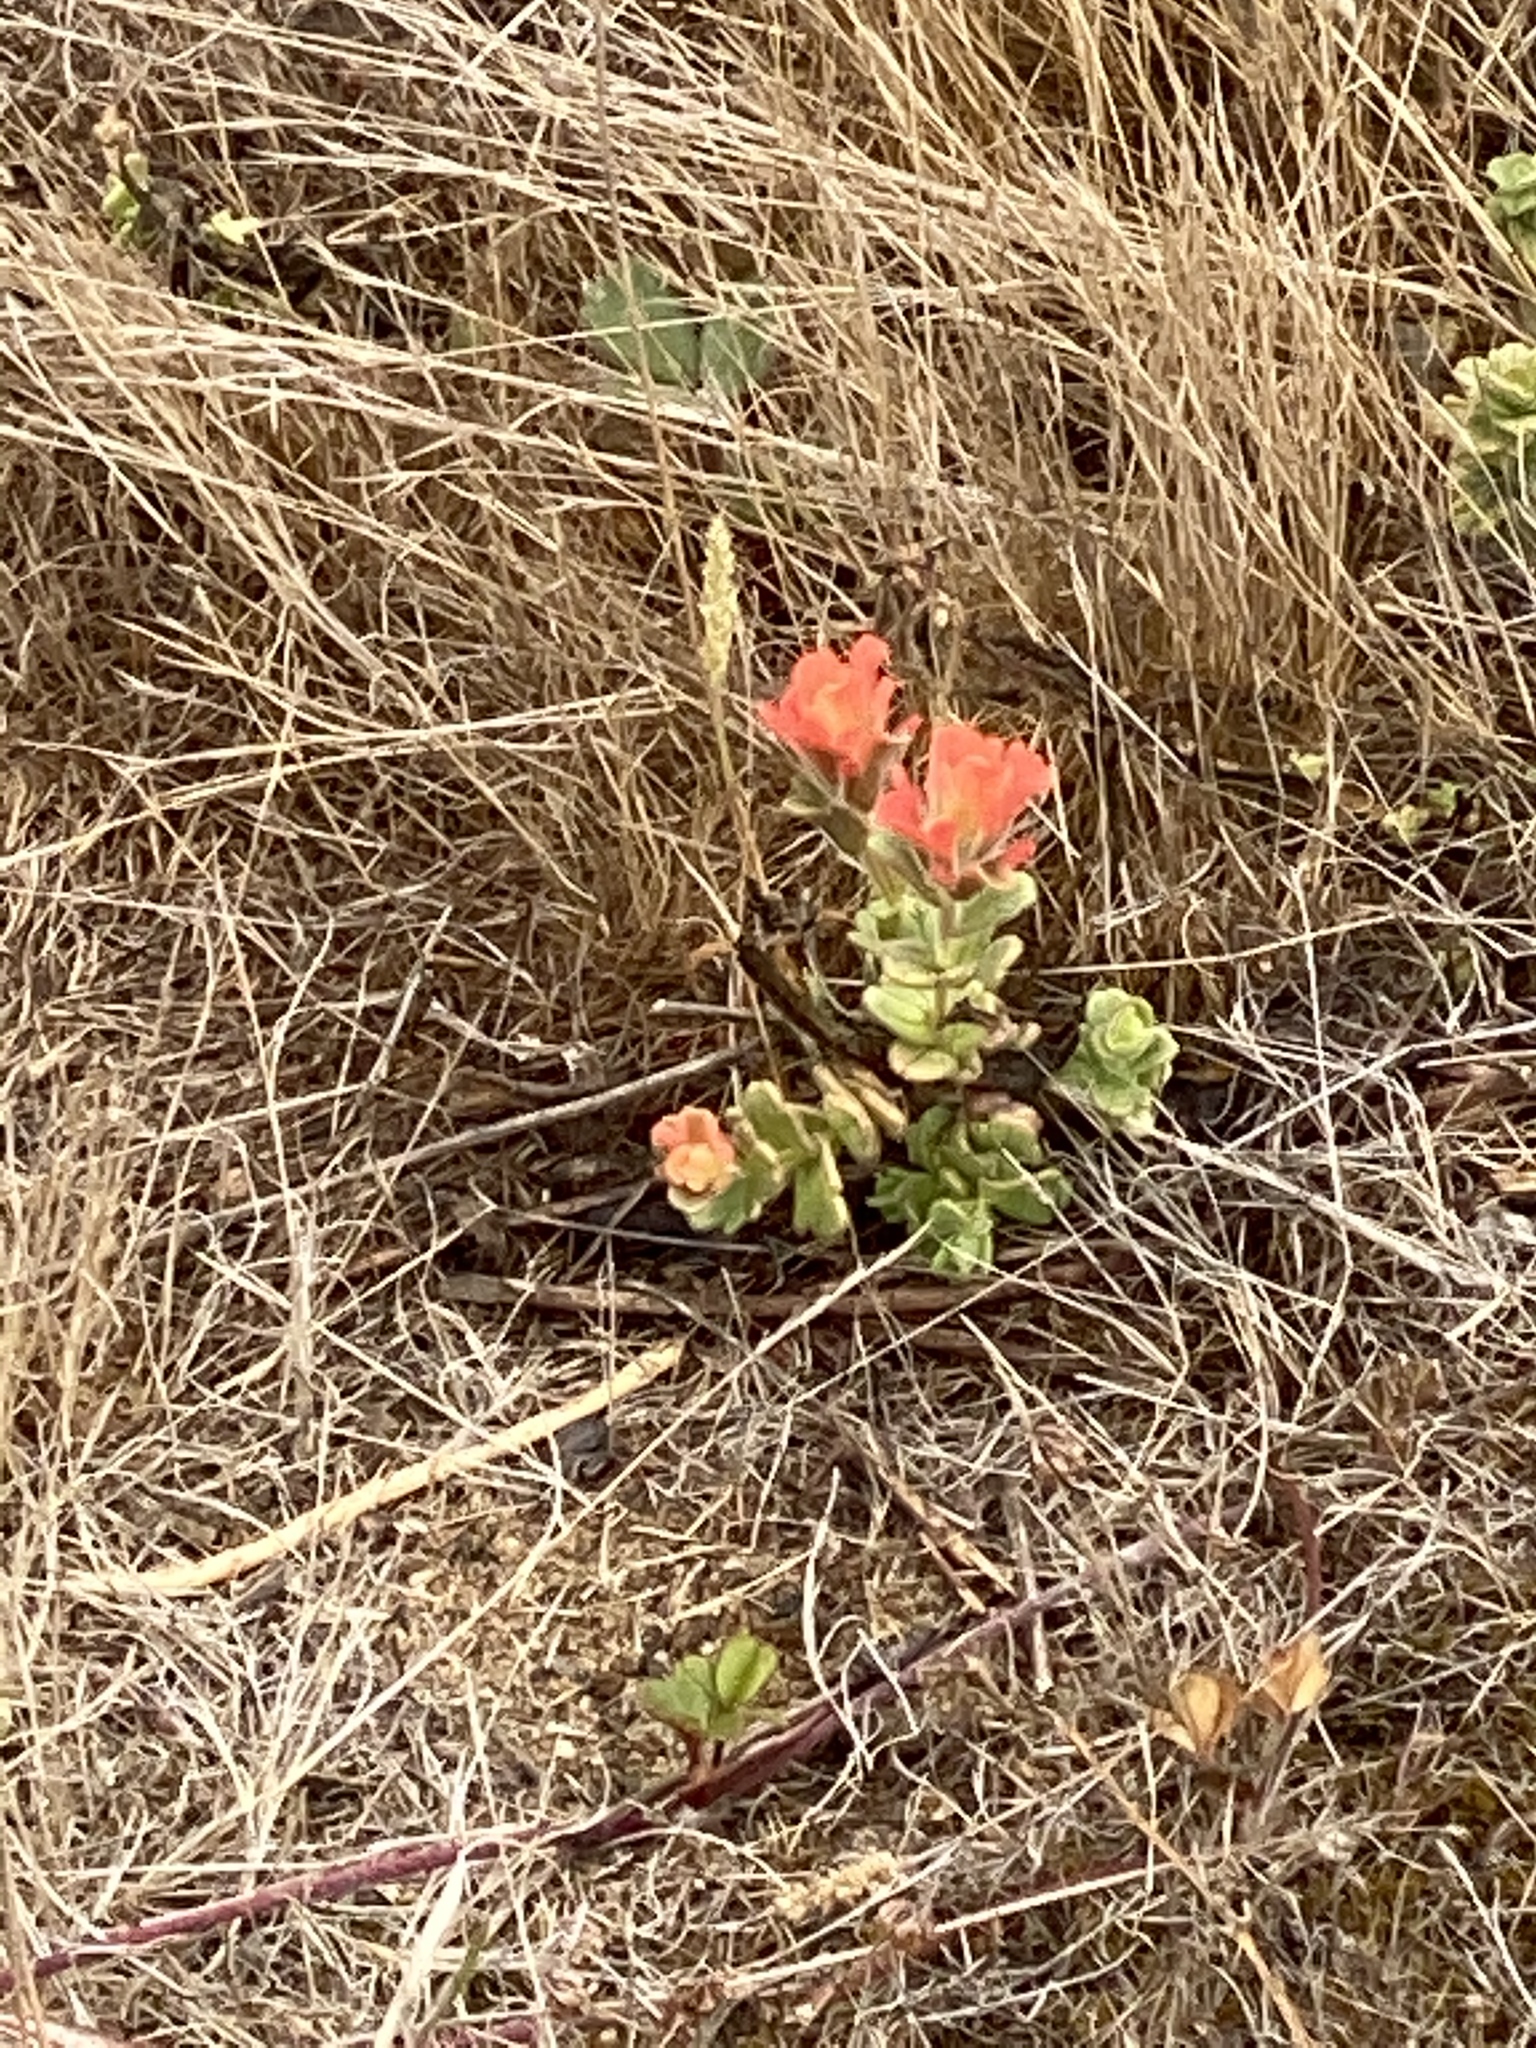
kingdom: Plantae
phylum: Tracheophyta
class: Magnoliopsida
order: Lamiales
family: Orobanchaceae
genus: Castilleja
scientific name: Castilleja latifolia
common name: Monterey indian paintbrush
